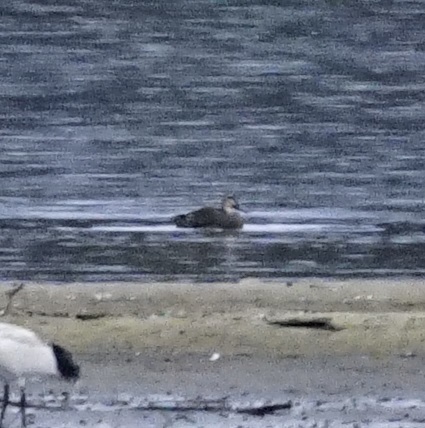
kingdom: Animalia
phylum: Chordata
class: Aves
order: Anseriformes
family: Anatidae
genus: Anas
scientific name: Anas superciliosa
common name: Pacific black duck
